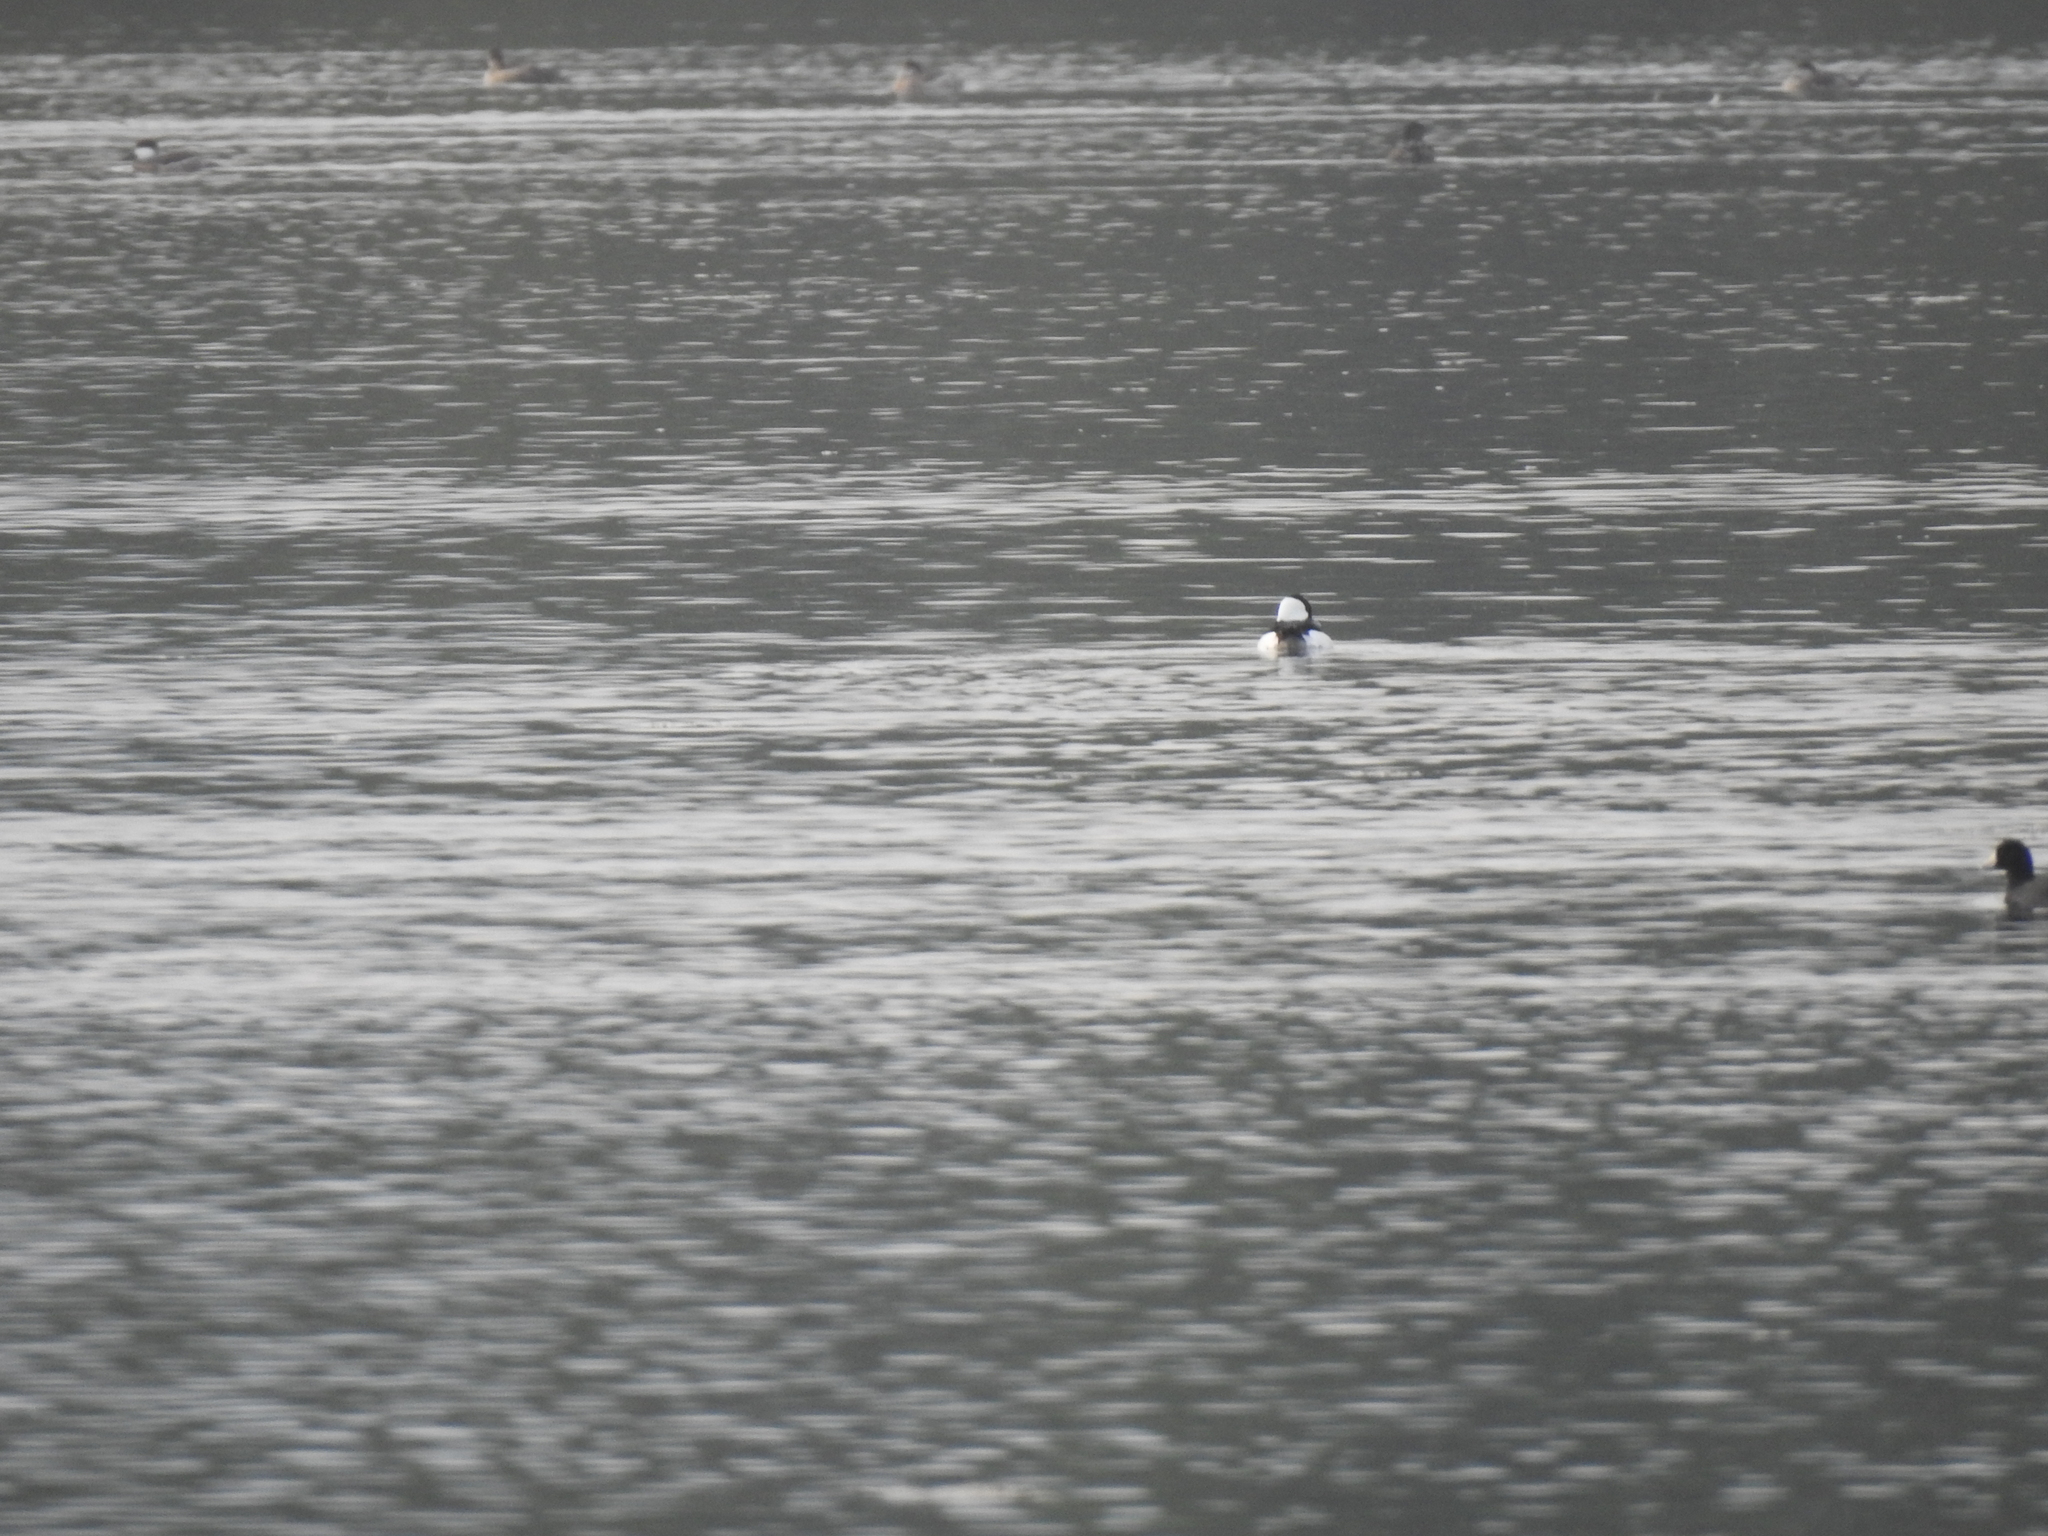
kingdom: Animalia
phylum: Chordata
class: Aves
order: Anseriformes
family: Anatidae
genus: Bucephala
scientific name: Bucephala albeola
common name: Bufflehead
